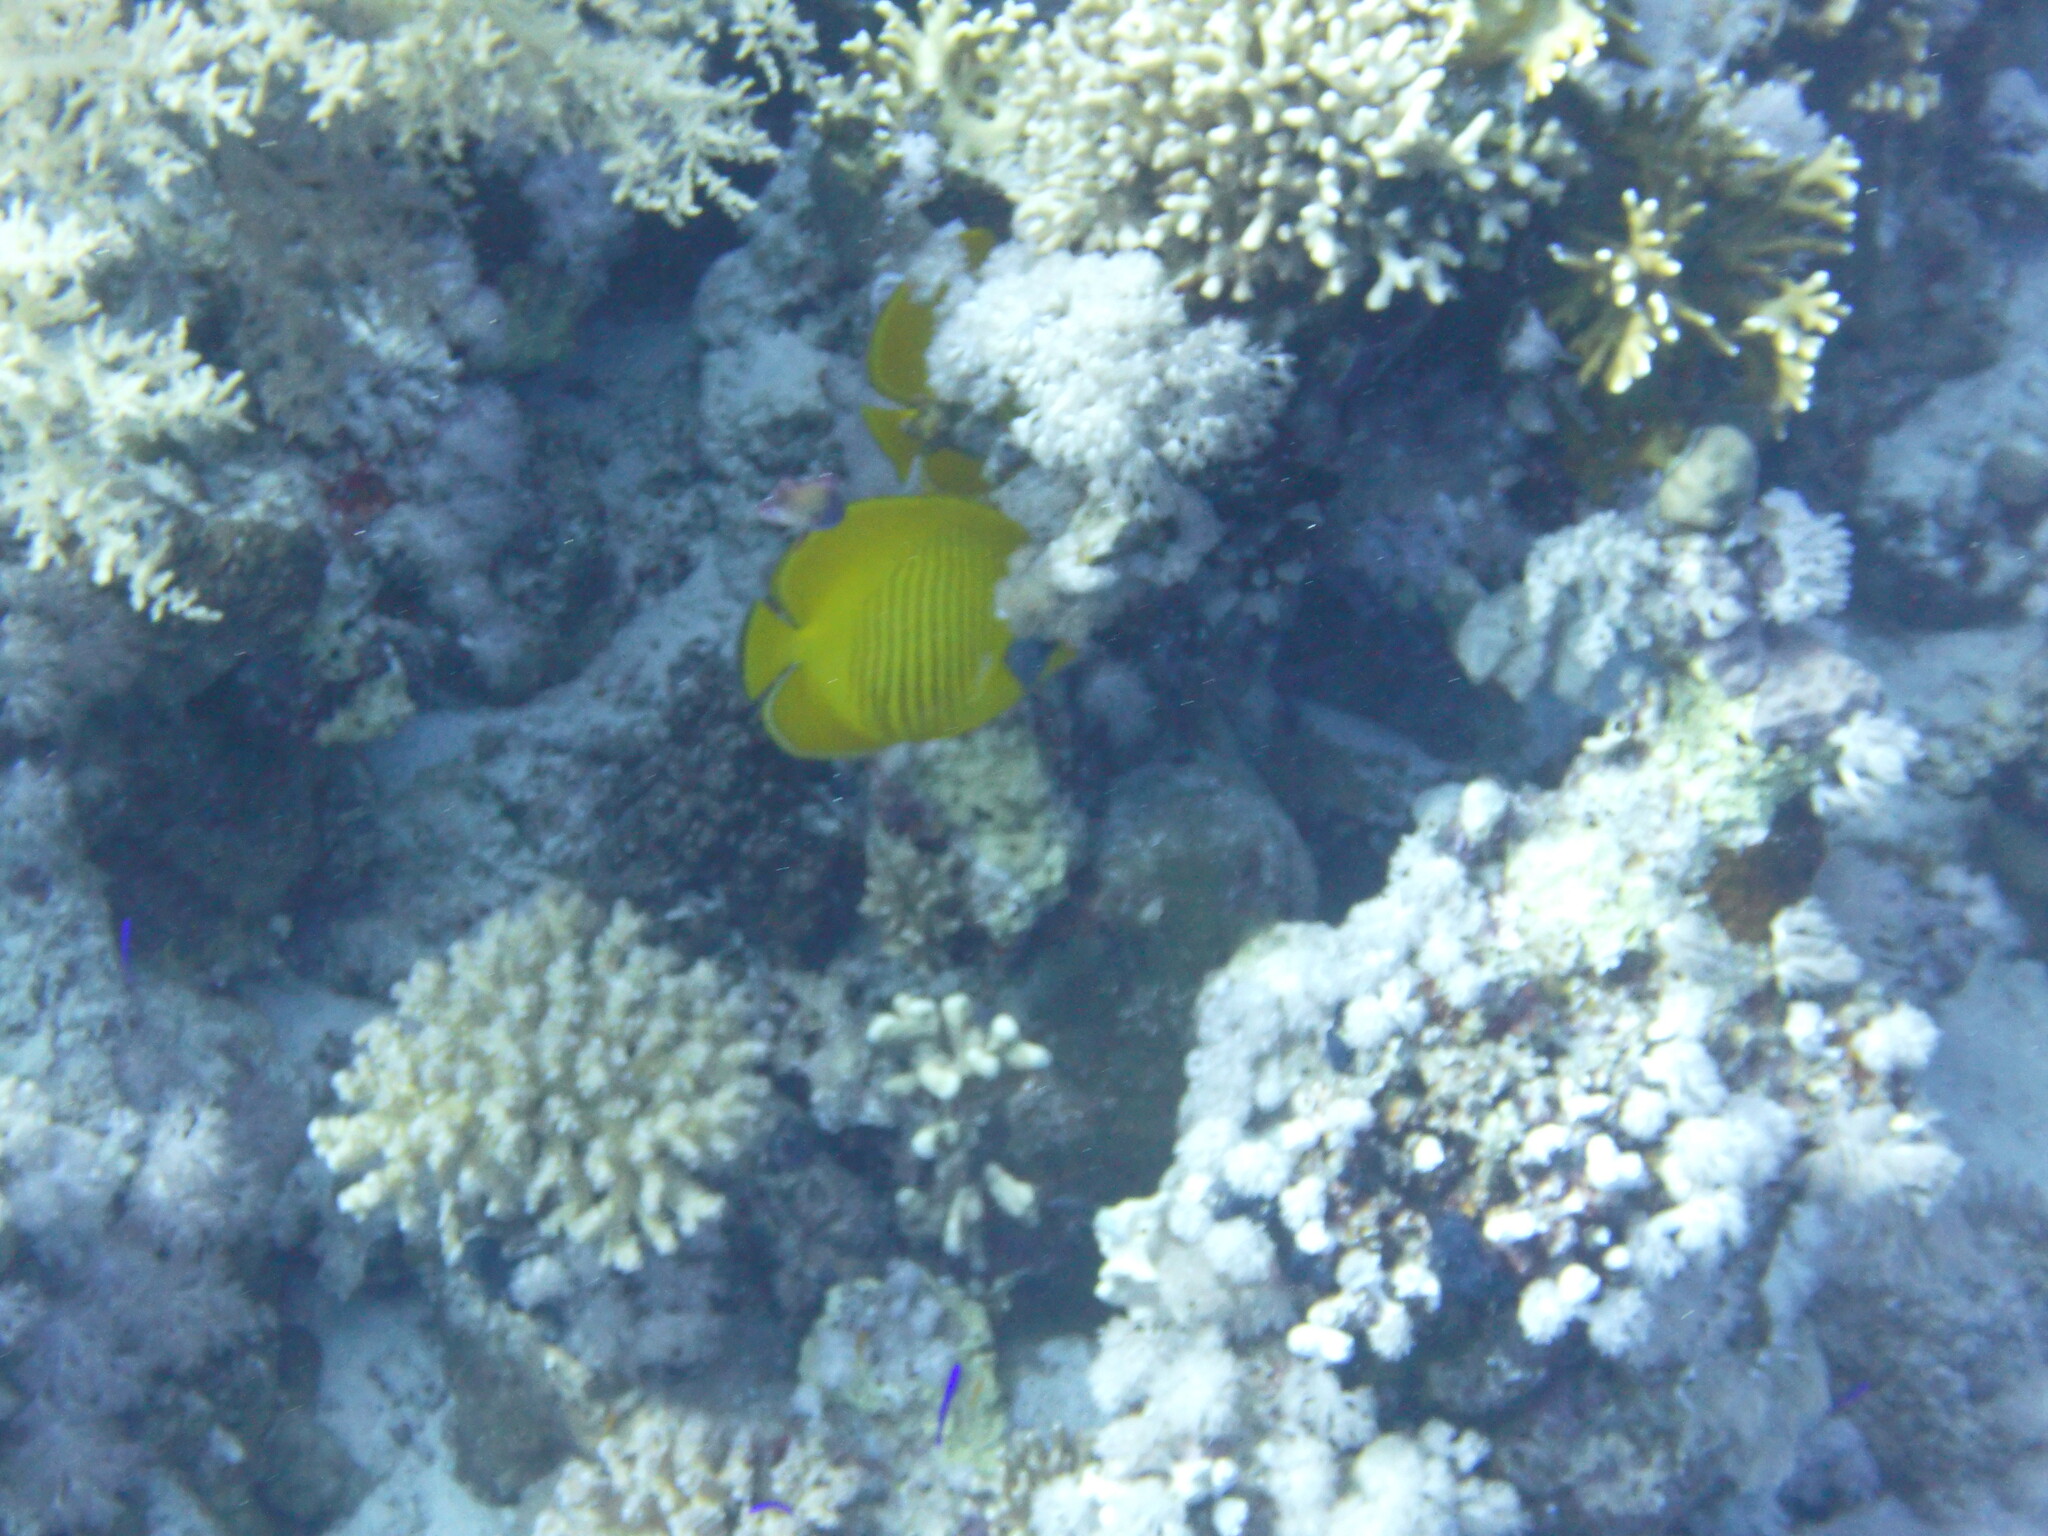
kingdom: Animalia
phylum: Chordata
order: Perciformes
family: Chaetodontidae
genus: Chaetodon
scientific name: Chaetodon semilarvatus
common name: Golden butterflyfish
